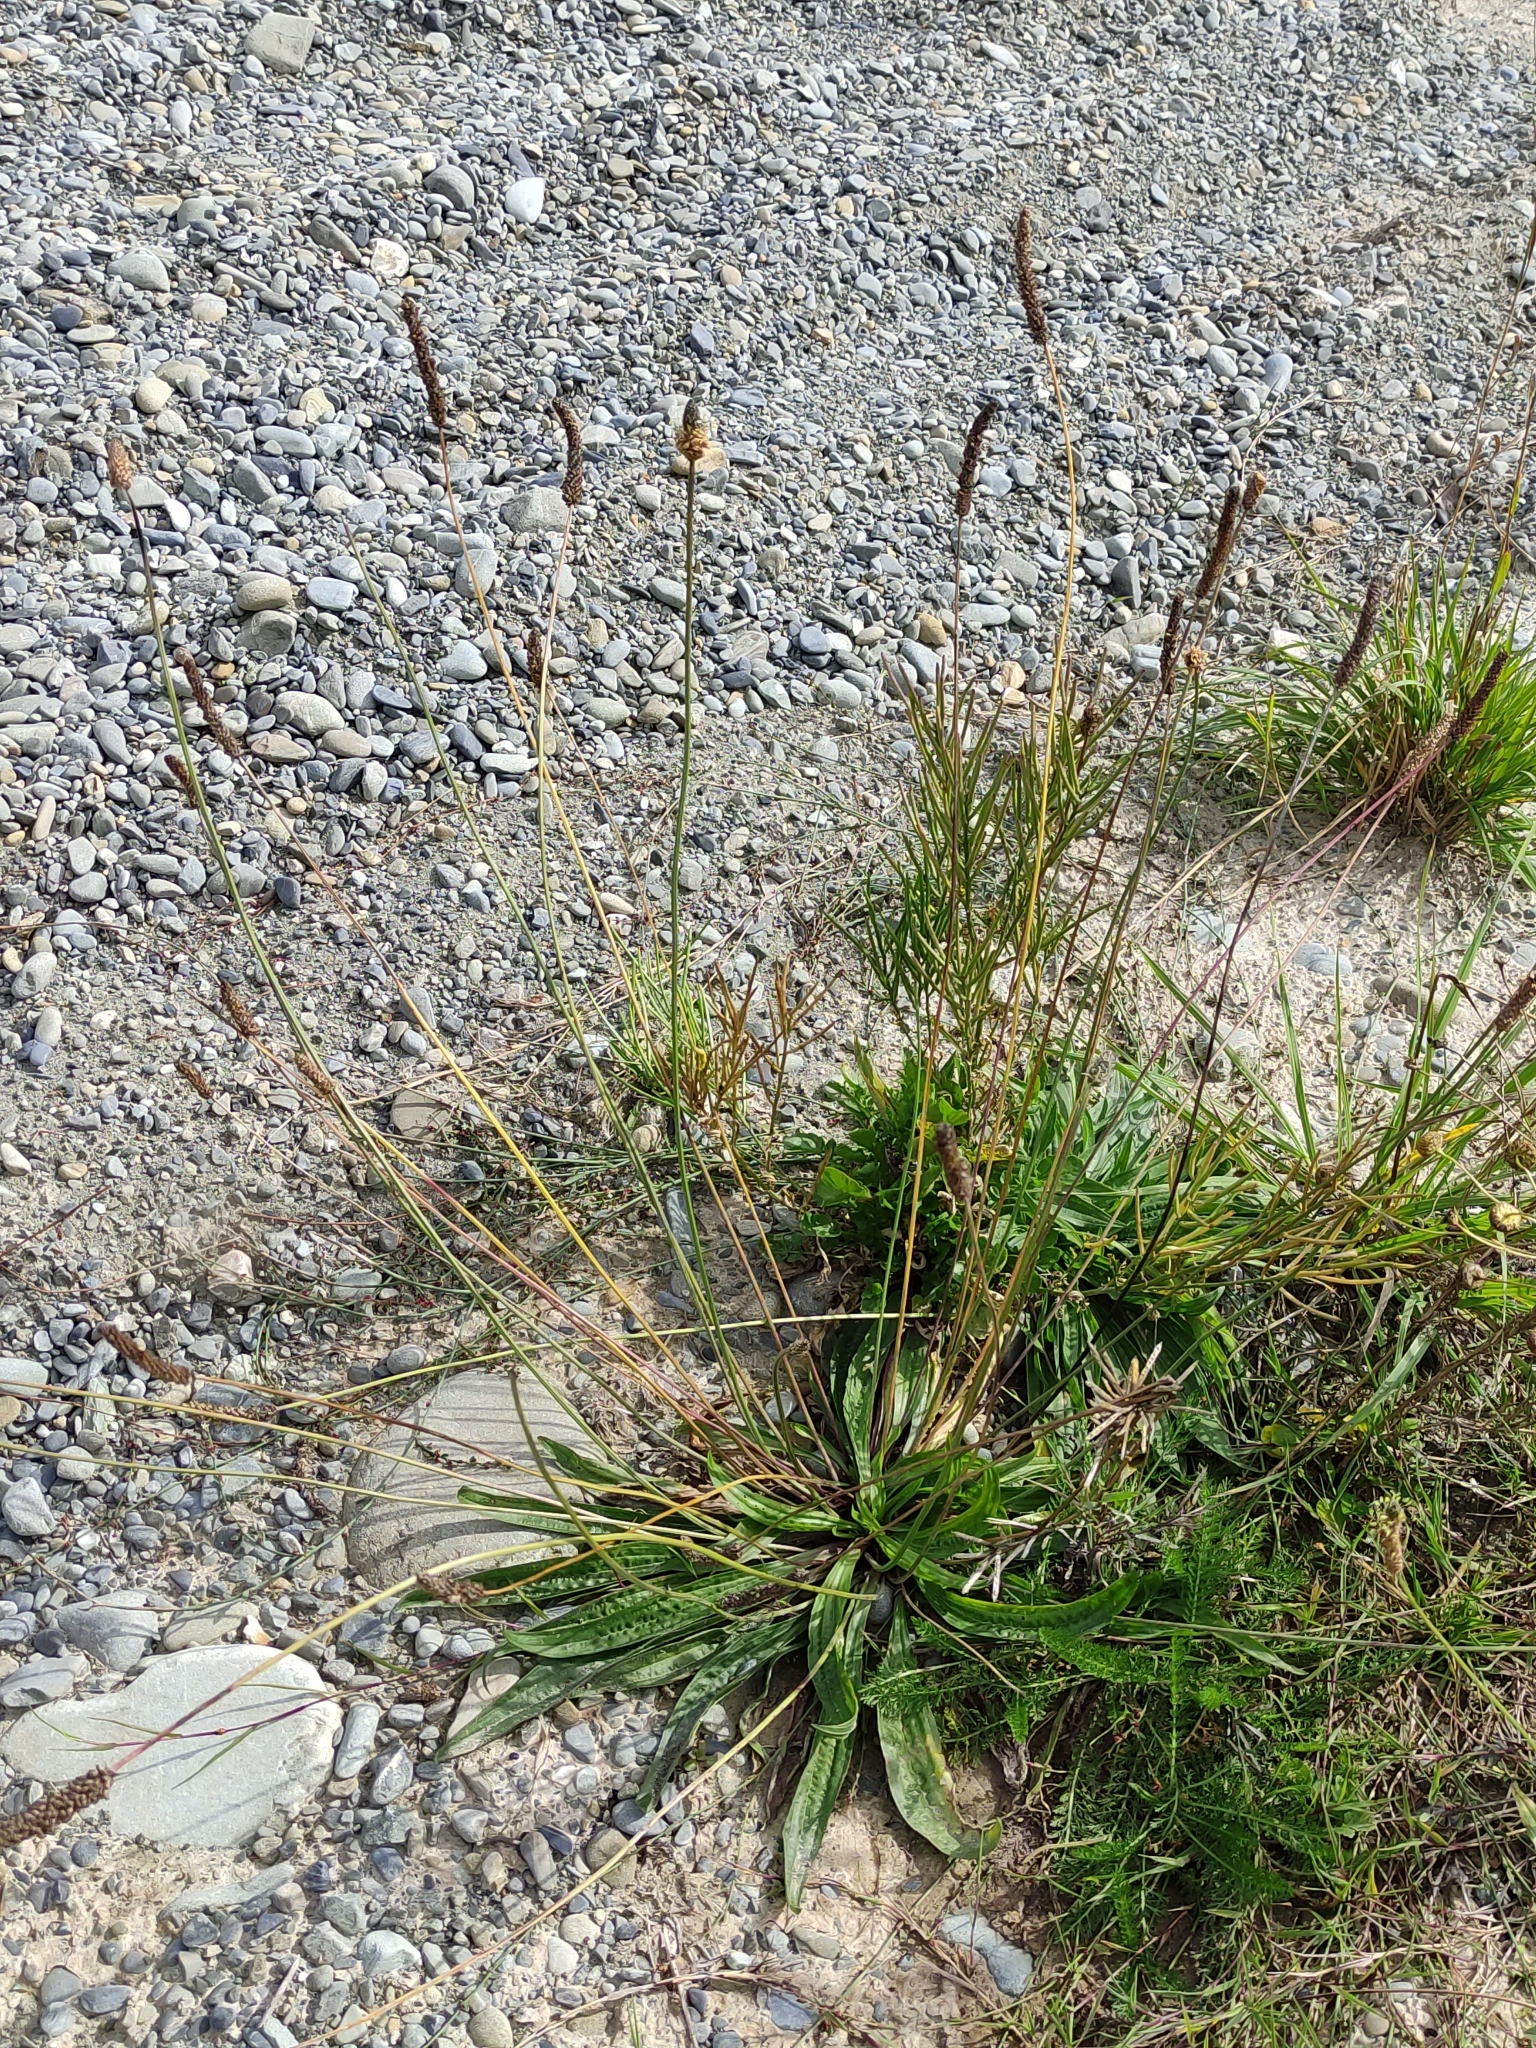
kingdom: Plantae
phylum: Tracheophyta
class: Magnoliopsida
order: Lamiales
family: Plantaginaceae
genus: Plantago
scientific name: Plantago lanceolata
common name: Ribwort plantain
